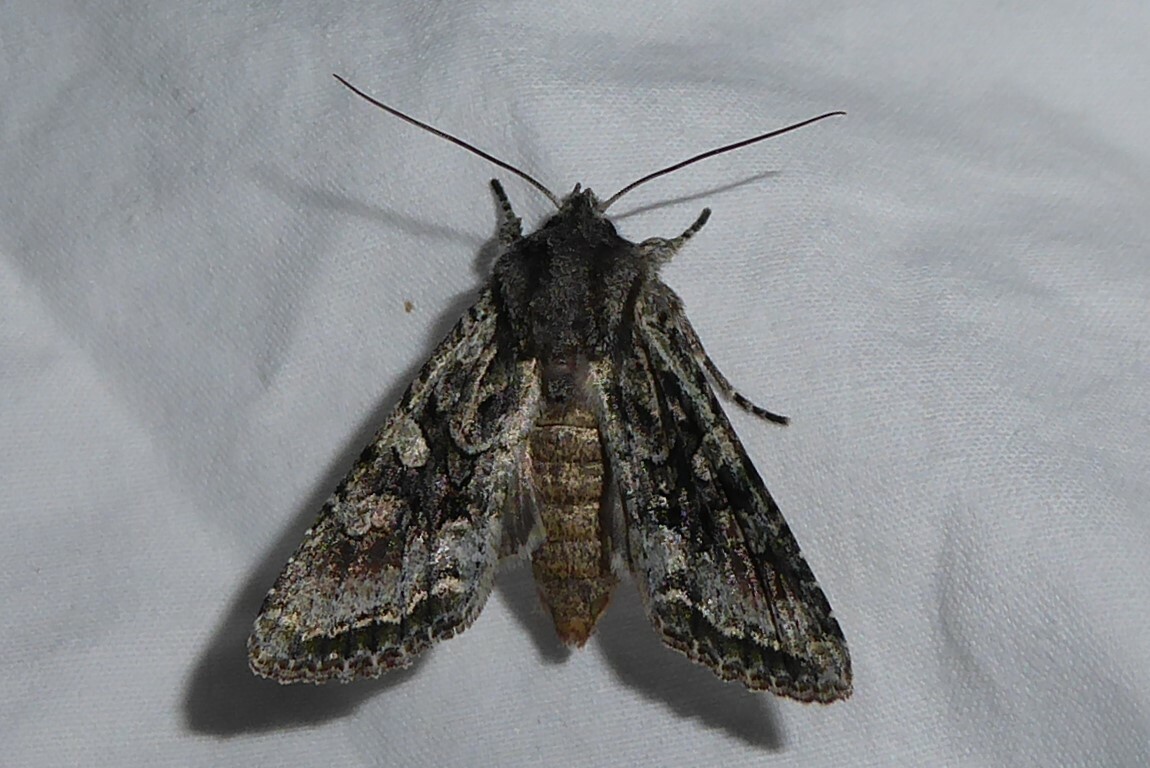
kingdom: Animalia
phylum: Arthropoda
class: Insecta
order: Lepidoptera
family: Noctuidae
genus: Ichneutica
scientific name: Ichneutica mutans
